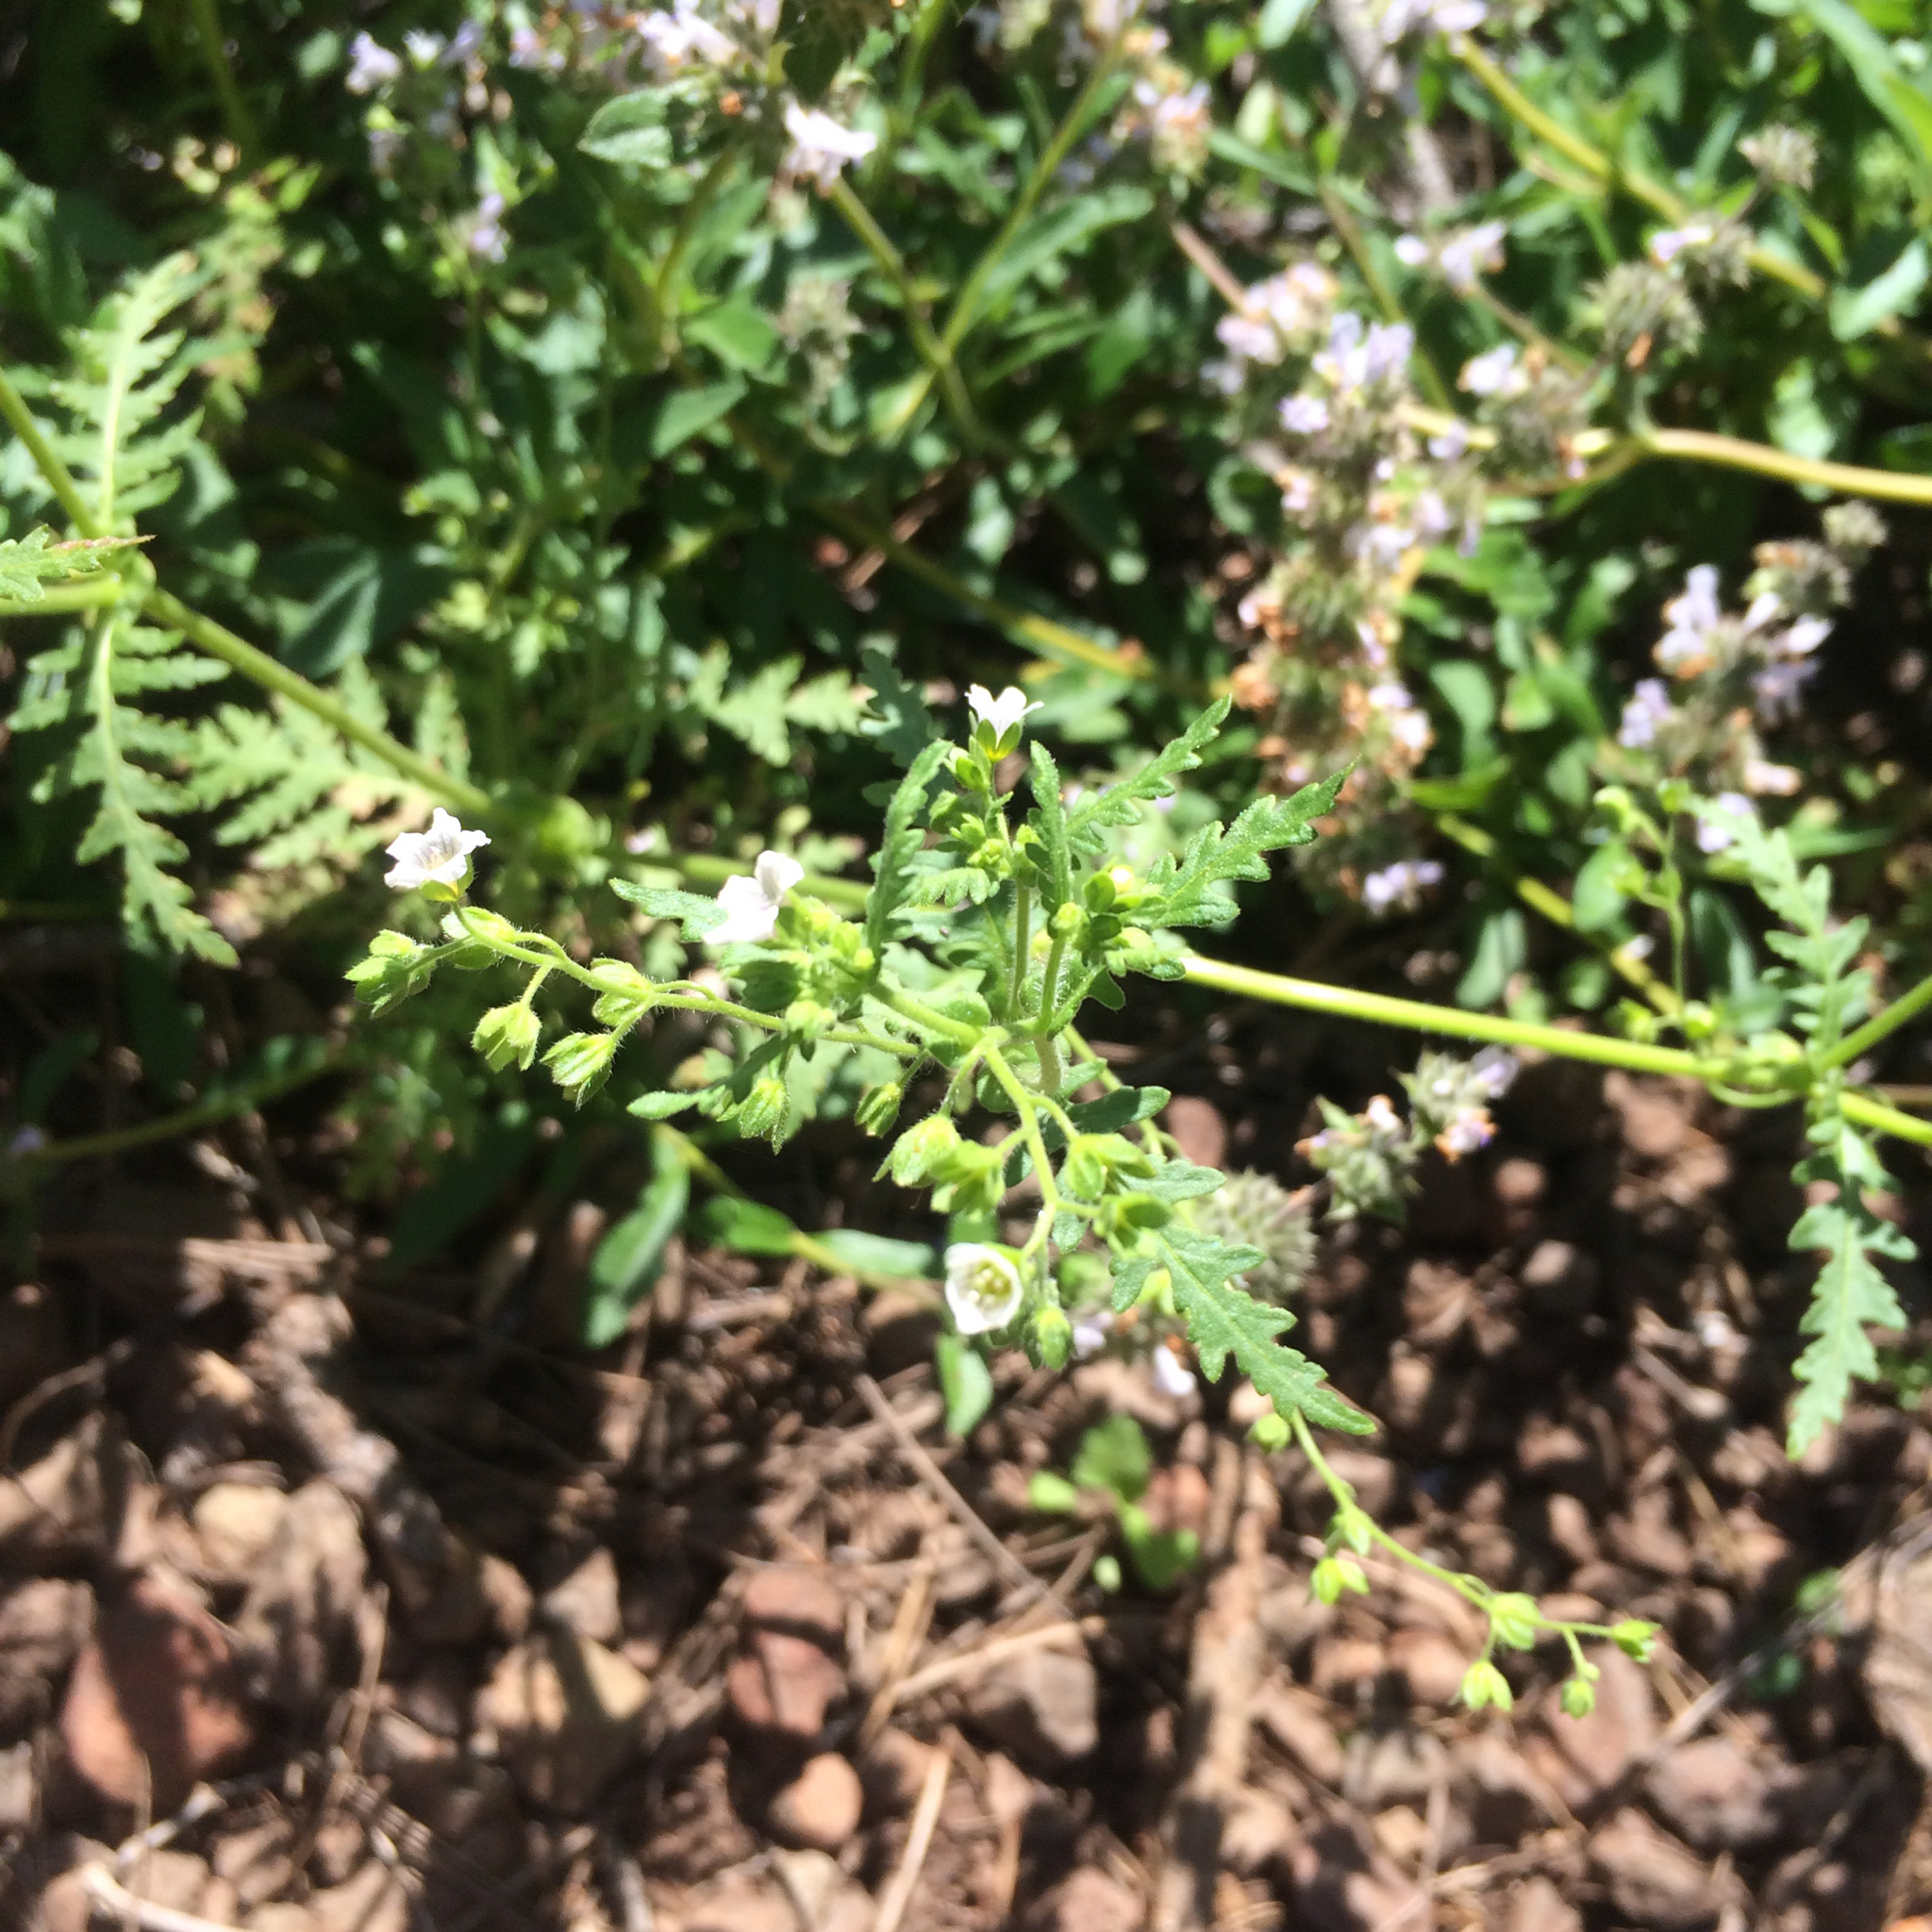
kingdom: Plantae
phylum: Tracheophyta
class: Magnoliopsida
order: Boraginales
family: Hydrophyllaceae
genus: Eucrypta
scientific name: Eucrypta chrysanthemifolia
